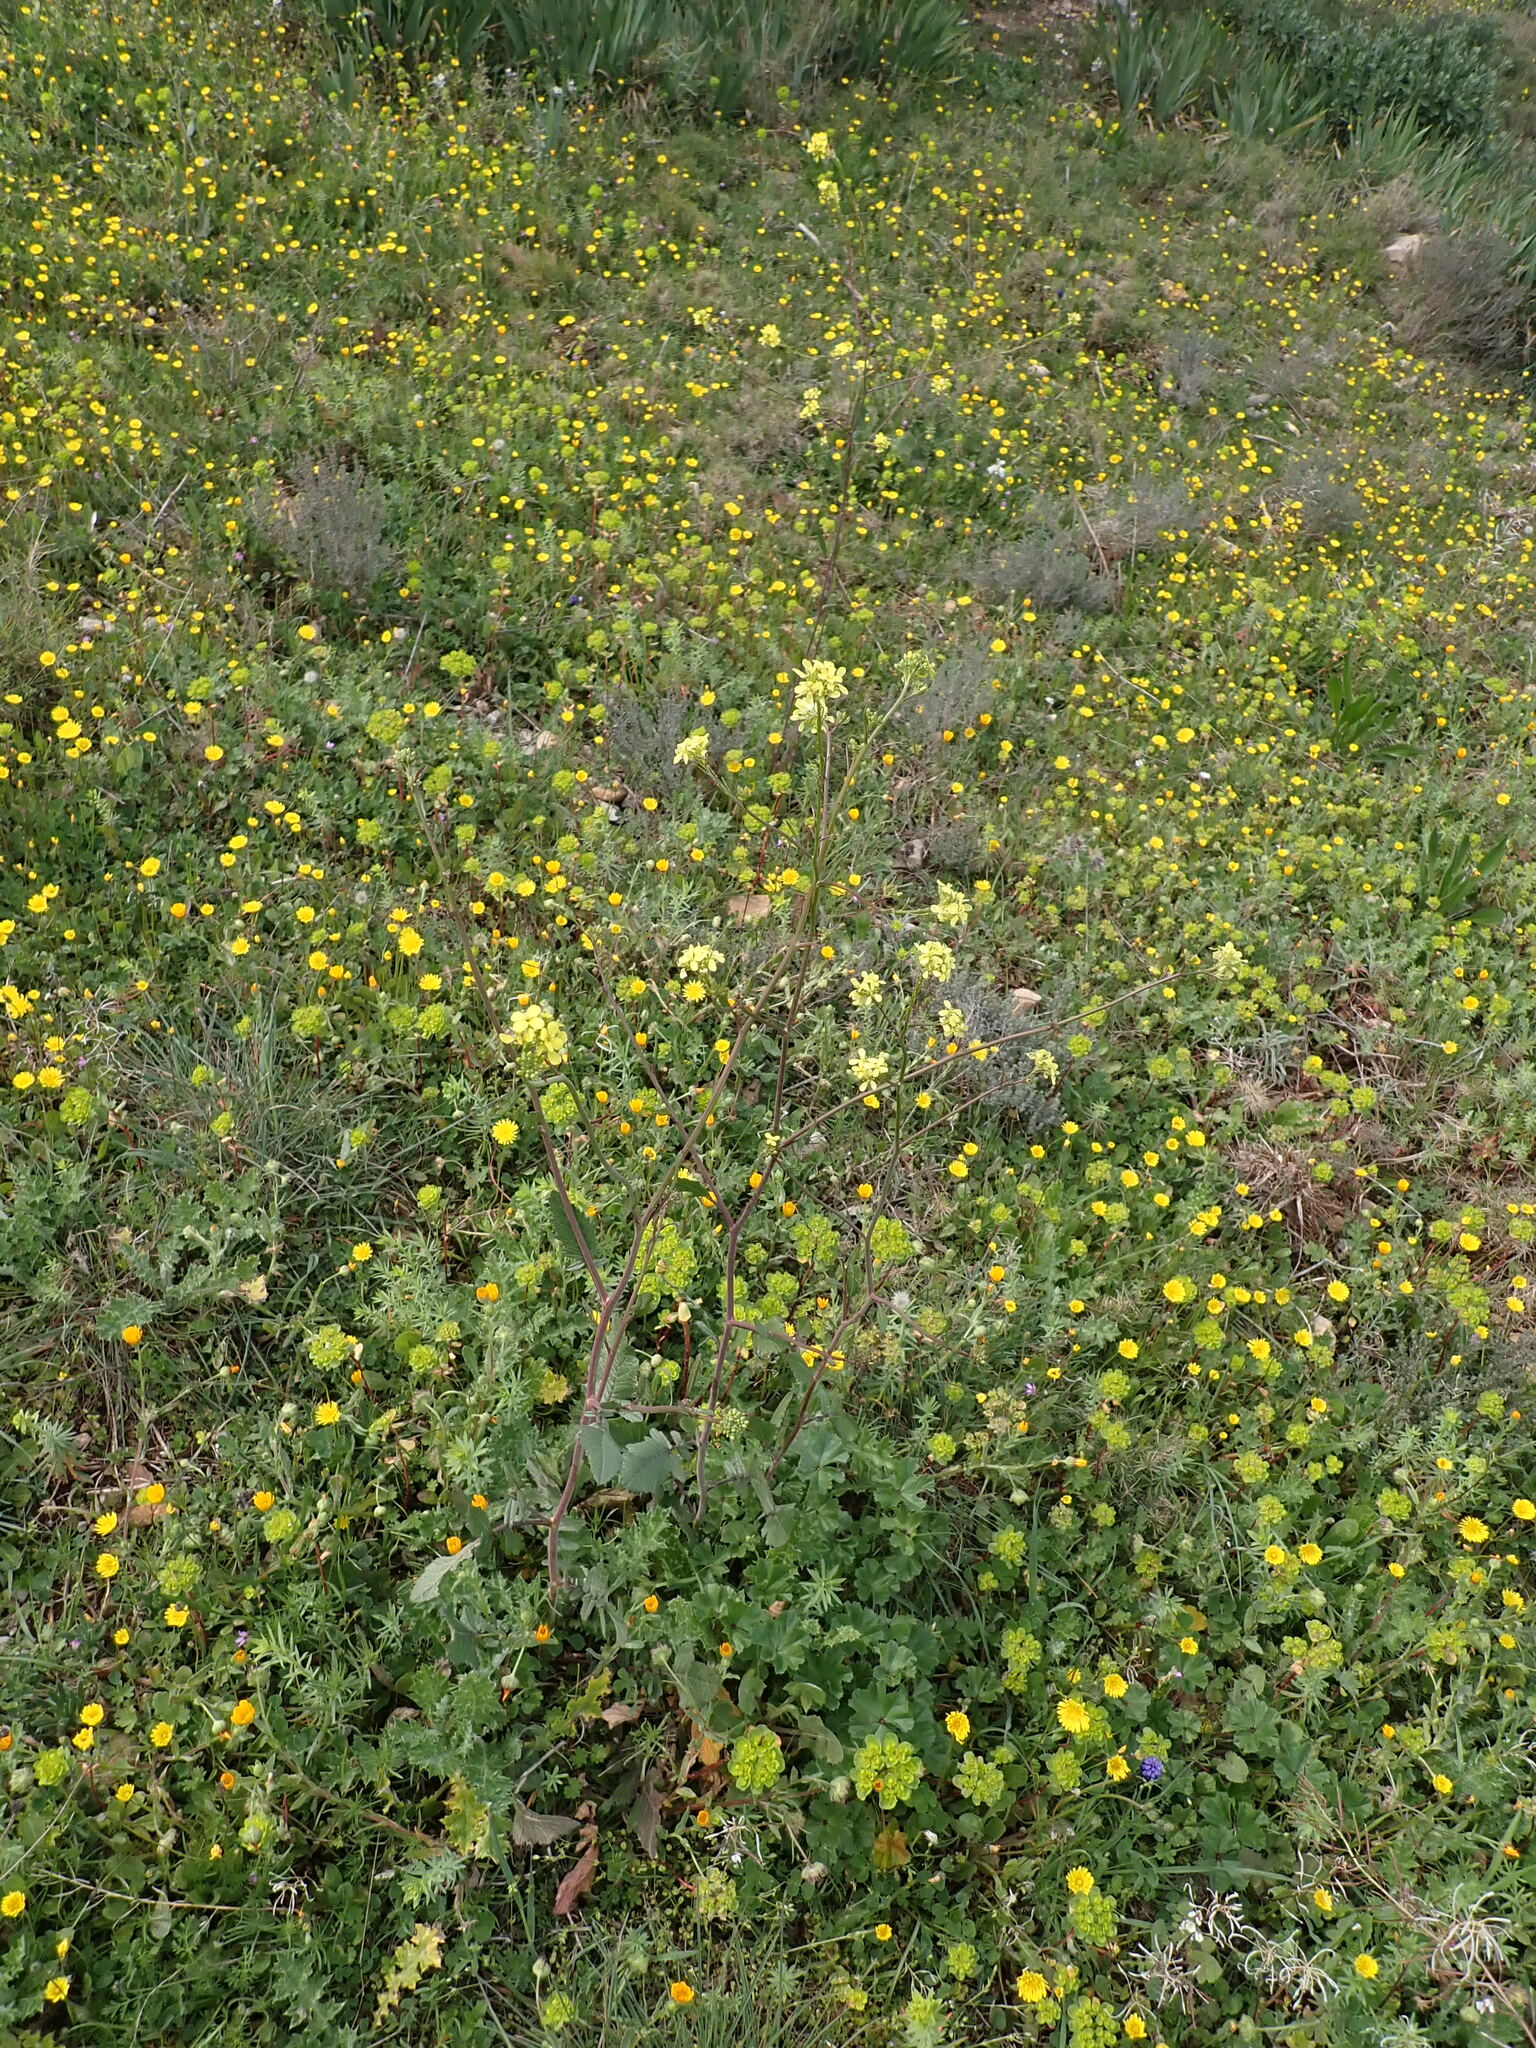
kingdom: Plantae
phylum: Tracheophyta
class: Magnoliopsida
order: Brassicales
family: Brassicaceae
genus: Hirschfeldia
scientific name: Hirschfeldia incana
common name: Hoary mustard
